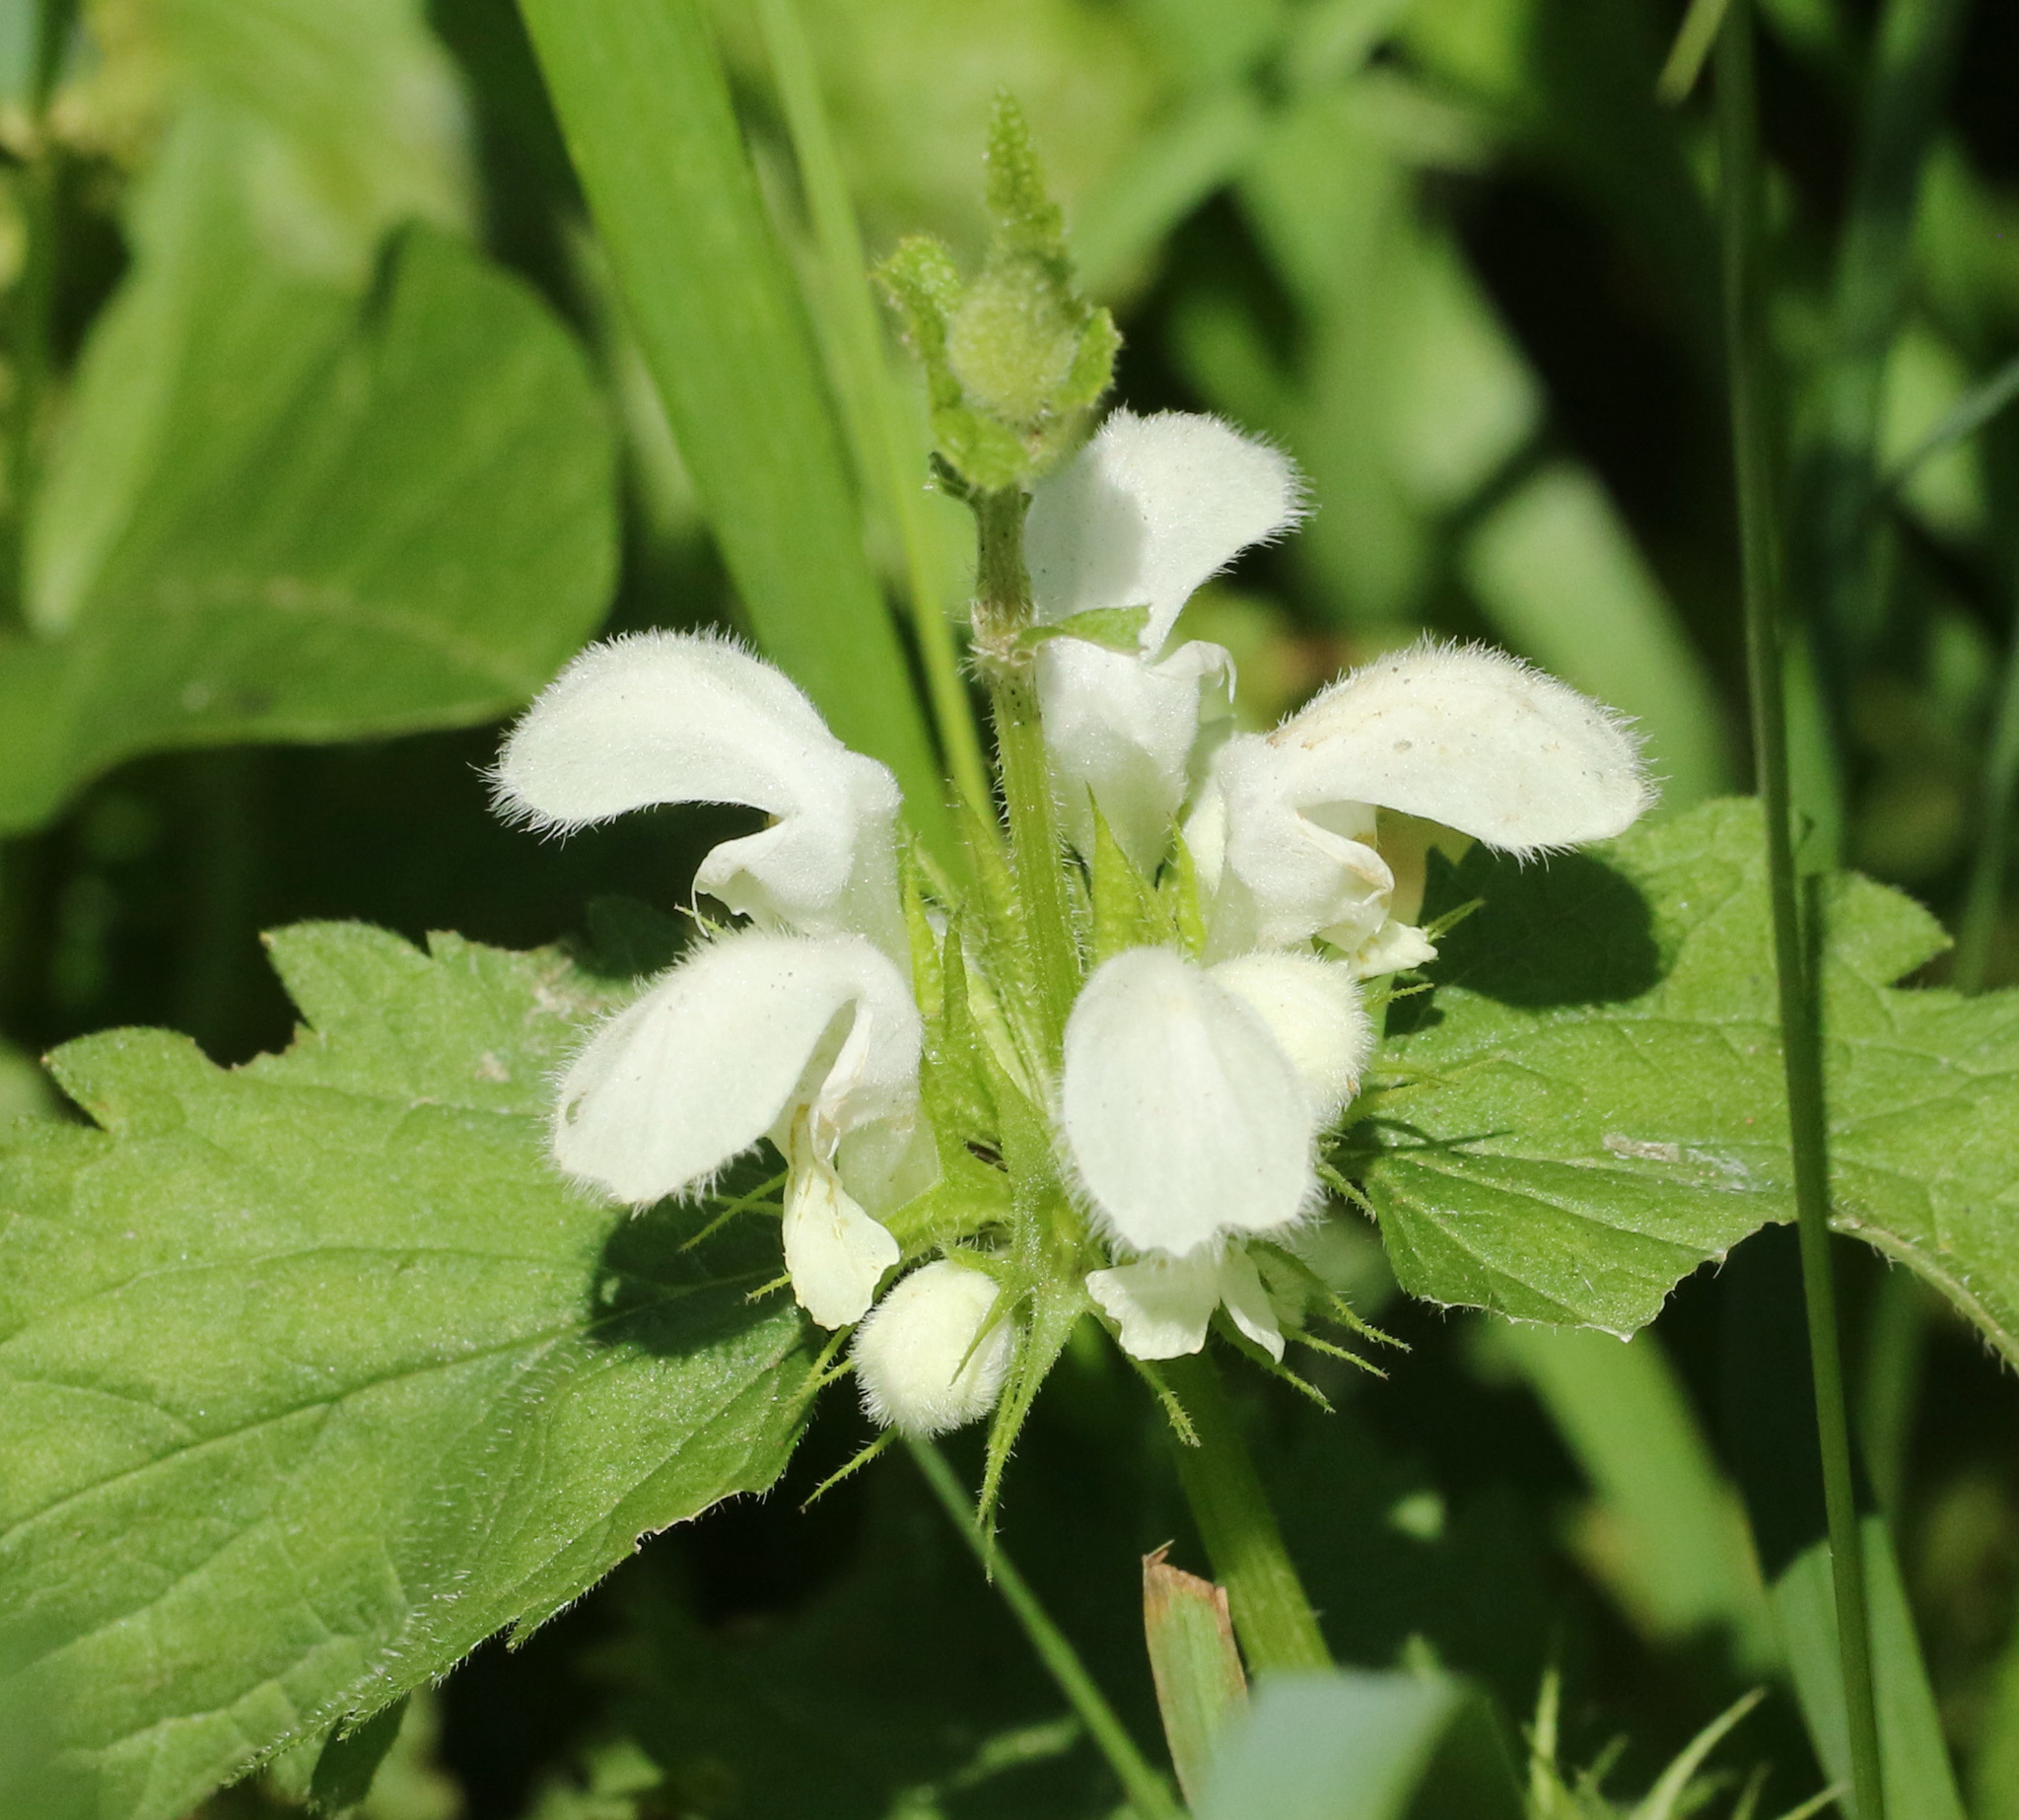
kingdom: Plantae
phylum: Tracheophyta
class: Magnoliopsida
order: Lamiales
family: Lamiaceae
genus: Lamium
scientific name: Lamium album
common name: White dead-nettle
